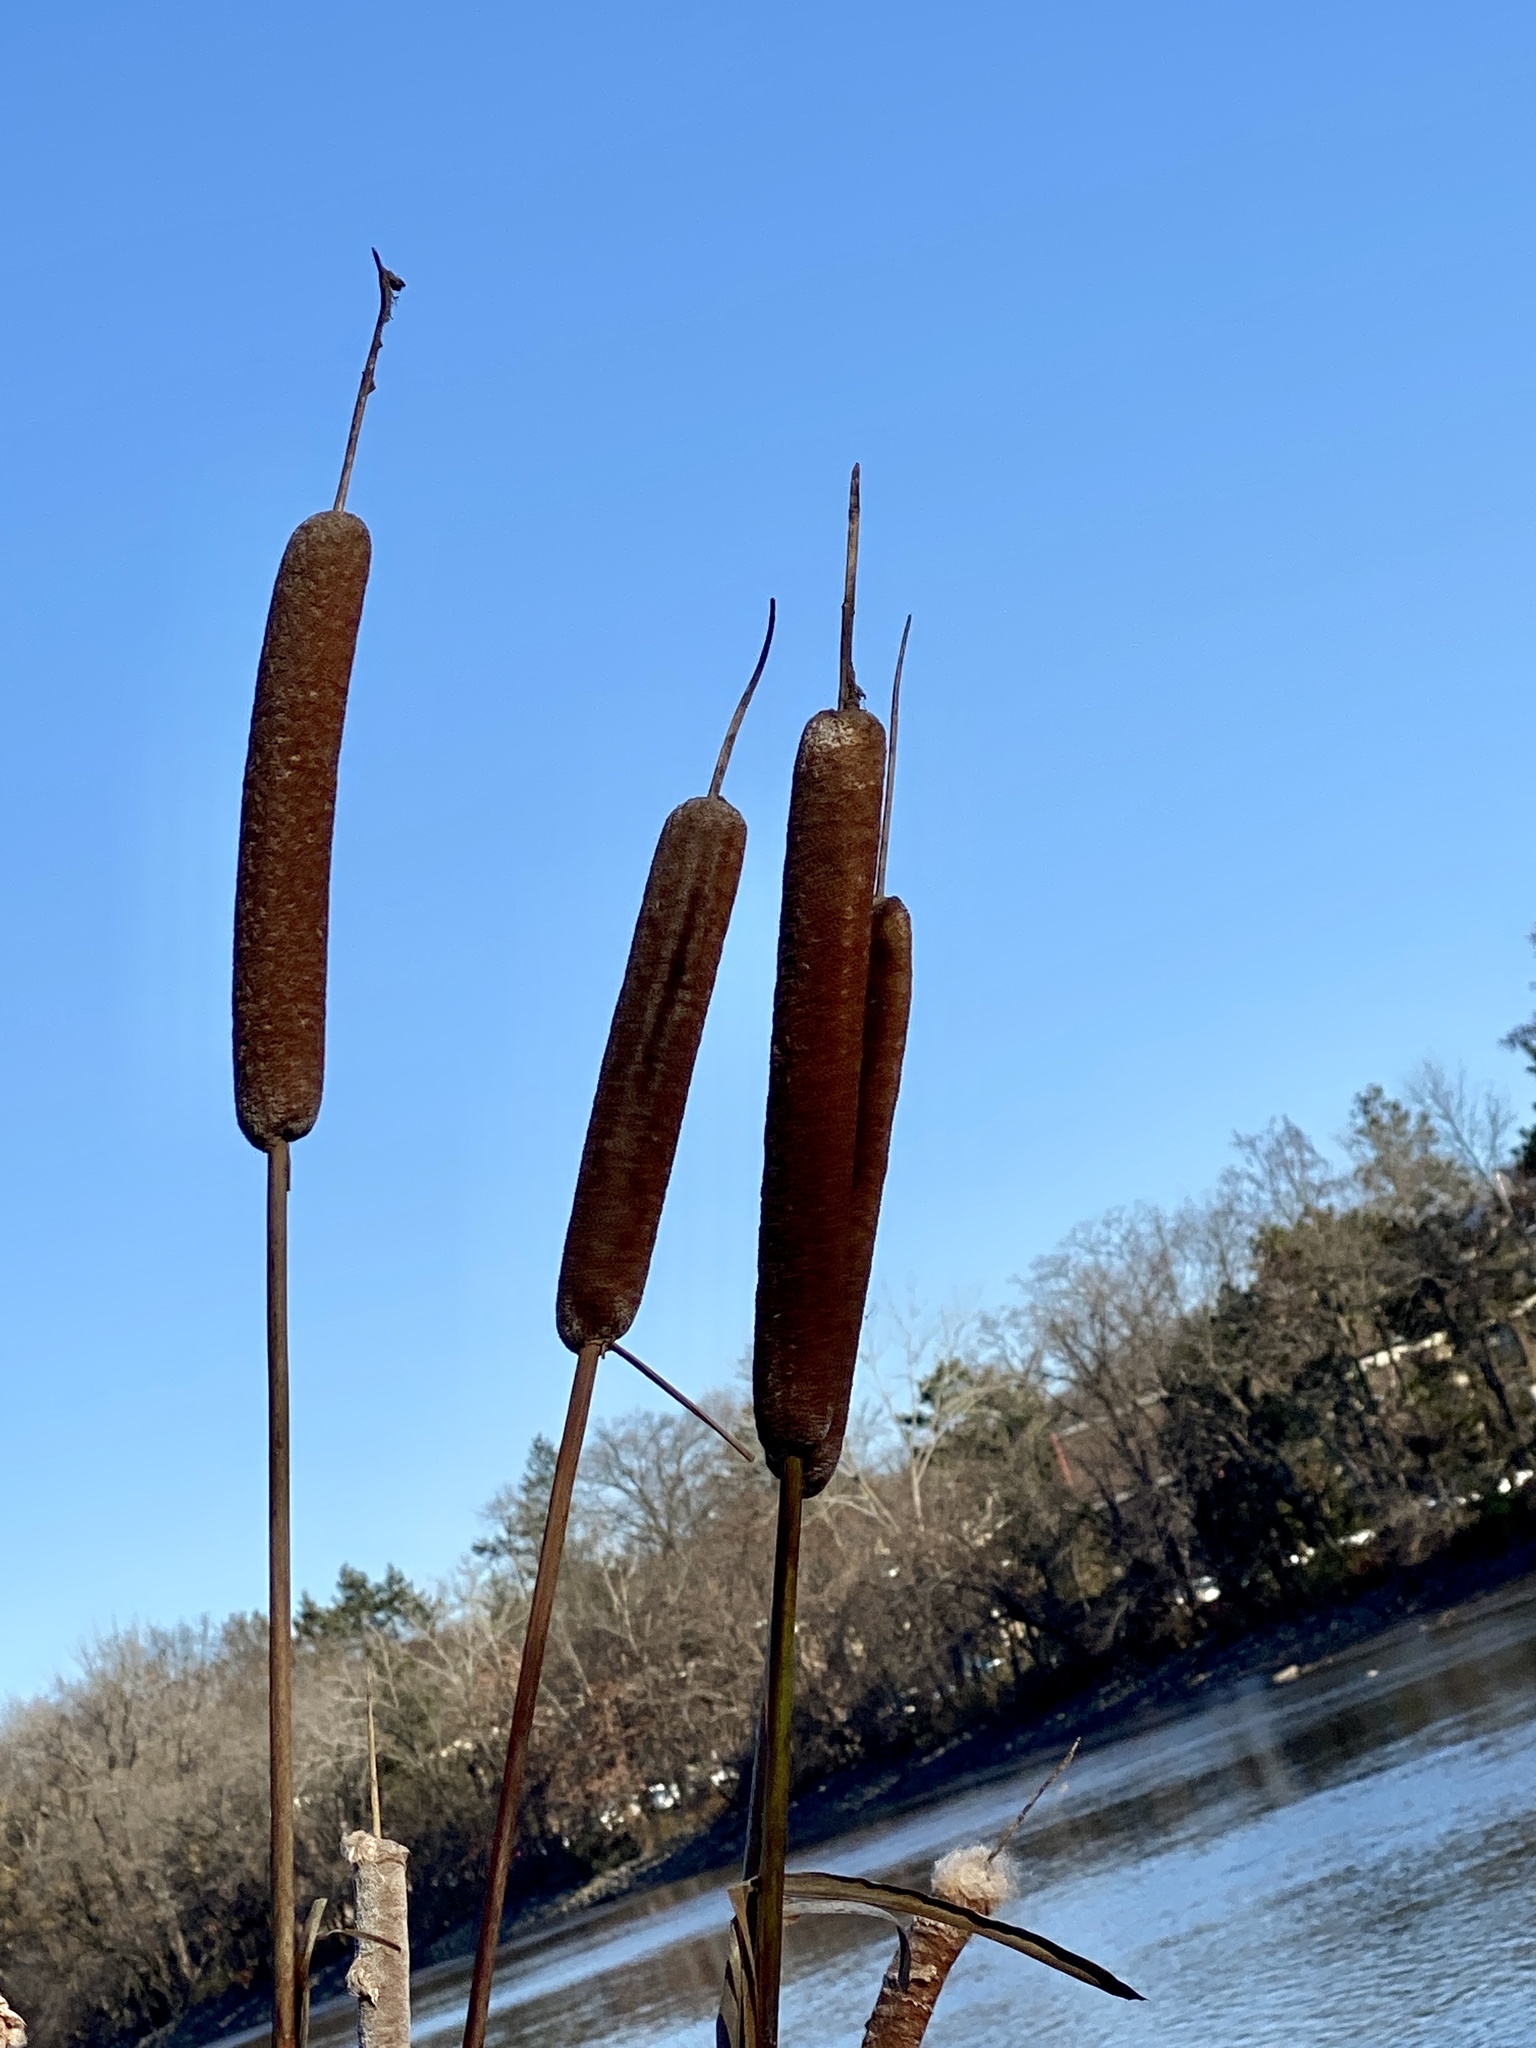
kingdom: Plantae
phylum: Tracheophyta
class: Liliopsida
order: Poales
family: Typhaceae
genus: Typha
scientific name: Typha latifolia
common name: Broadleaf cattail
